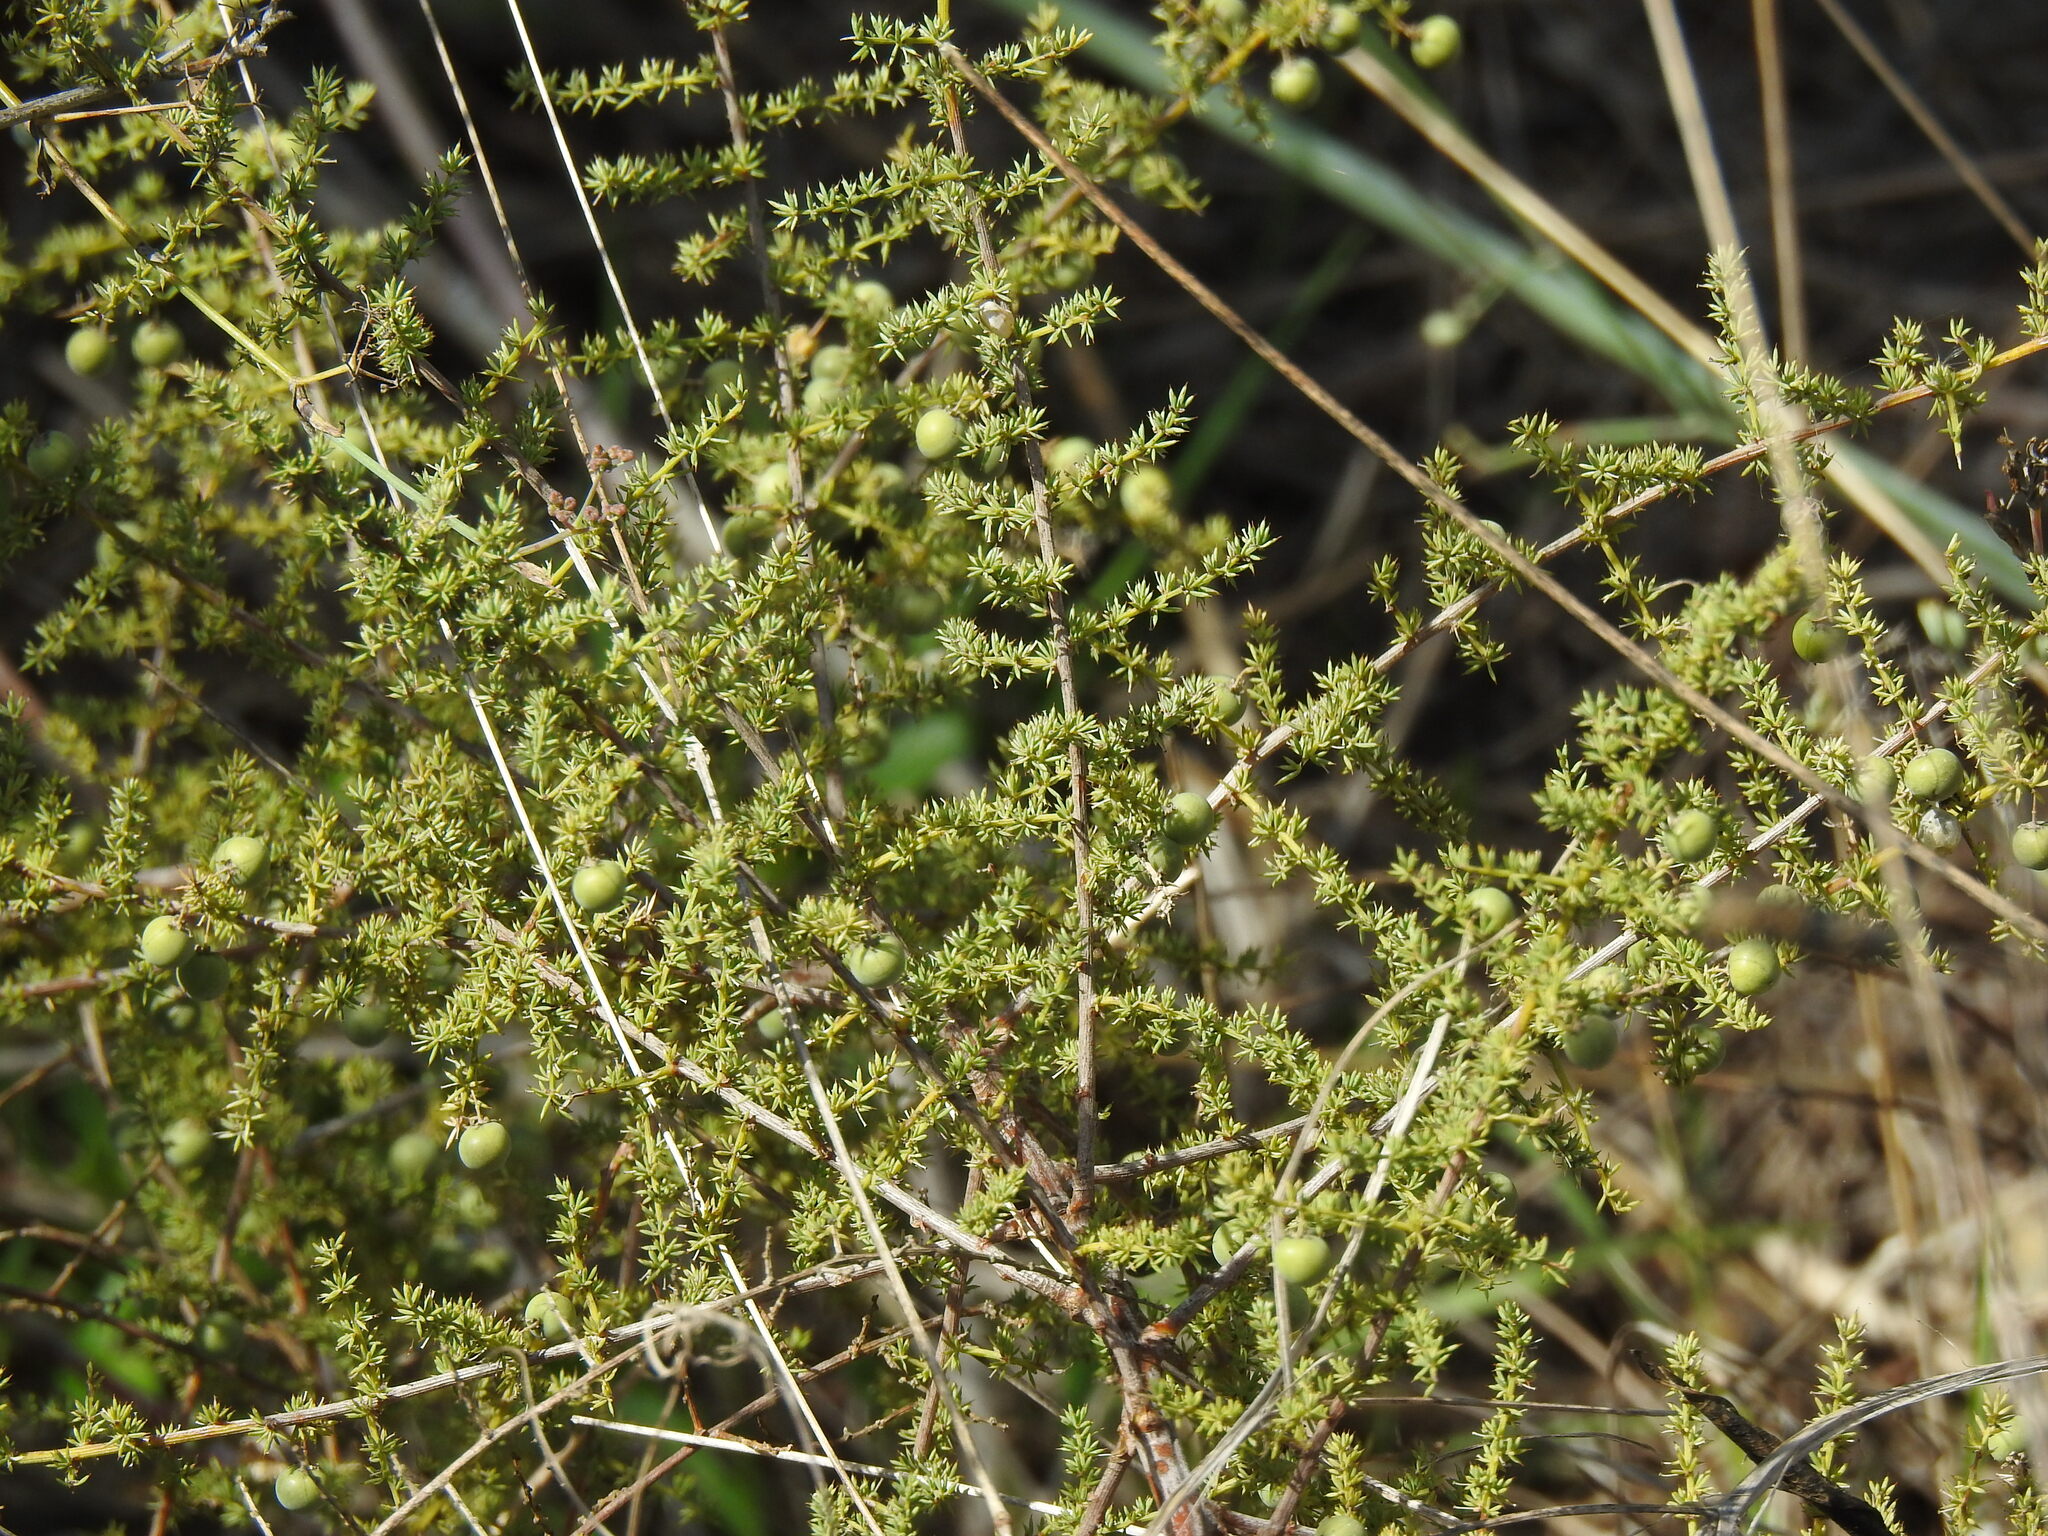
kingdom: Plantae
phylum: Tracheophyta
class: Liliopsida
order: Asparagales
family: Asparagaceae
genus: Asparagus
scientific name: Asparagus acutifolius
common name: Wild asparagus
